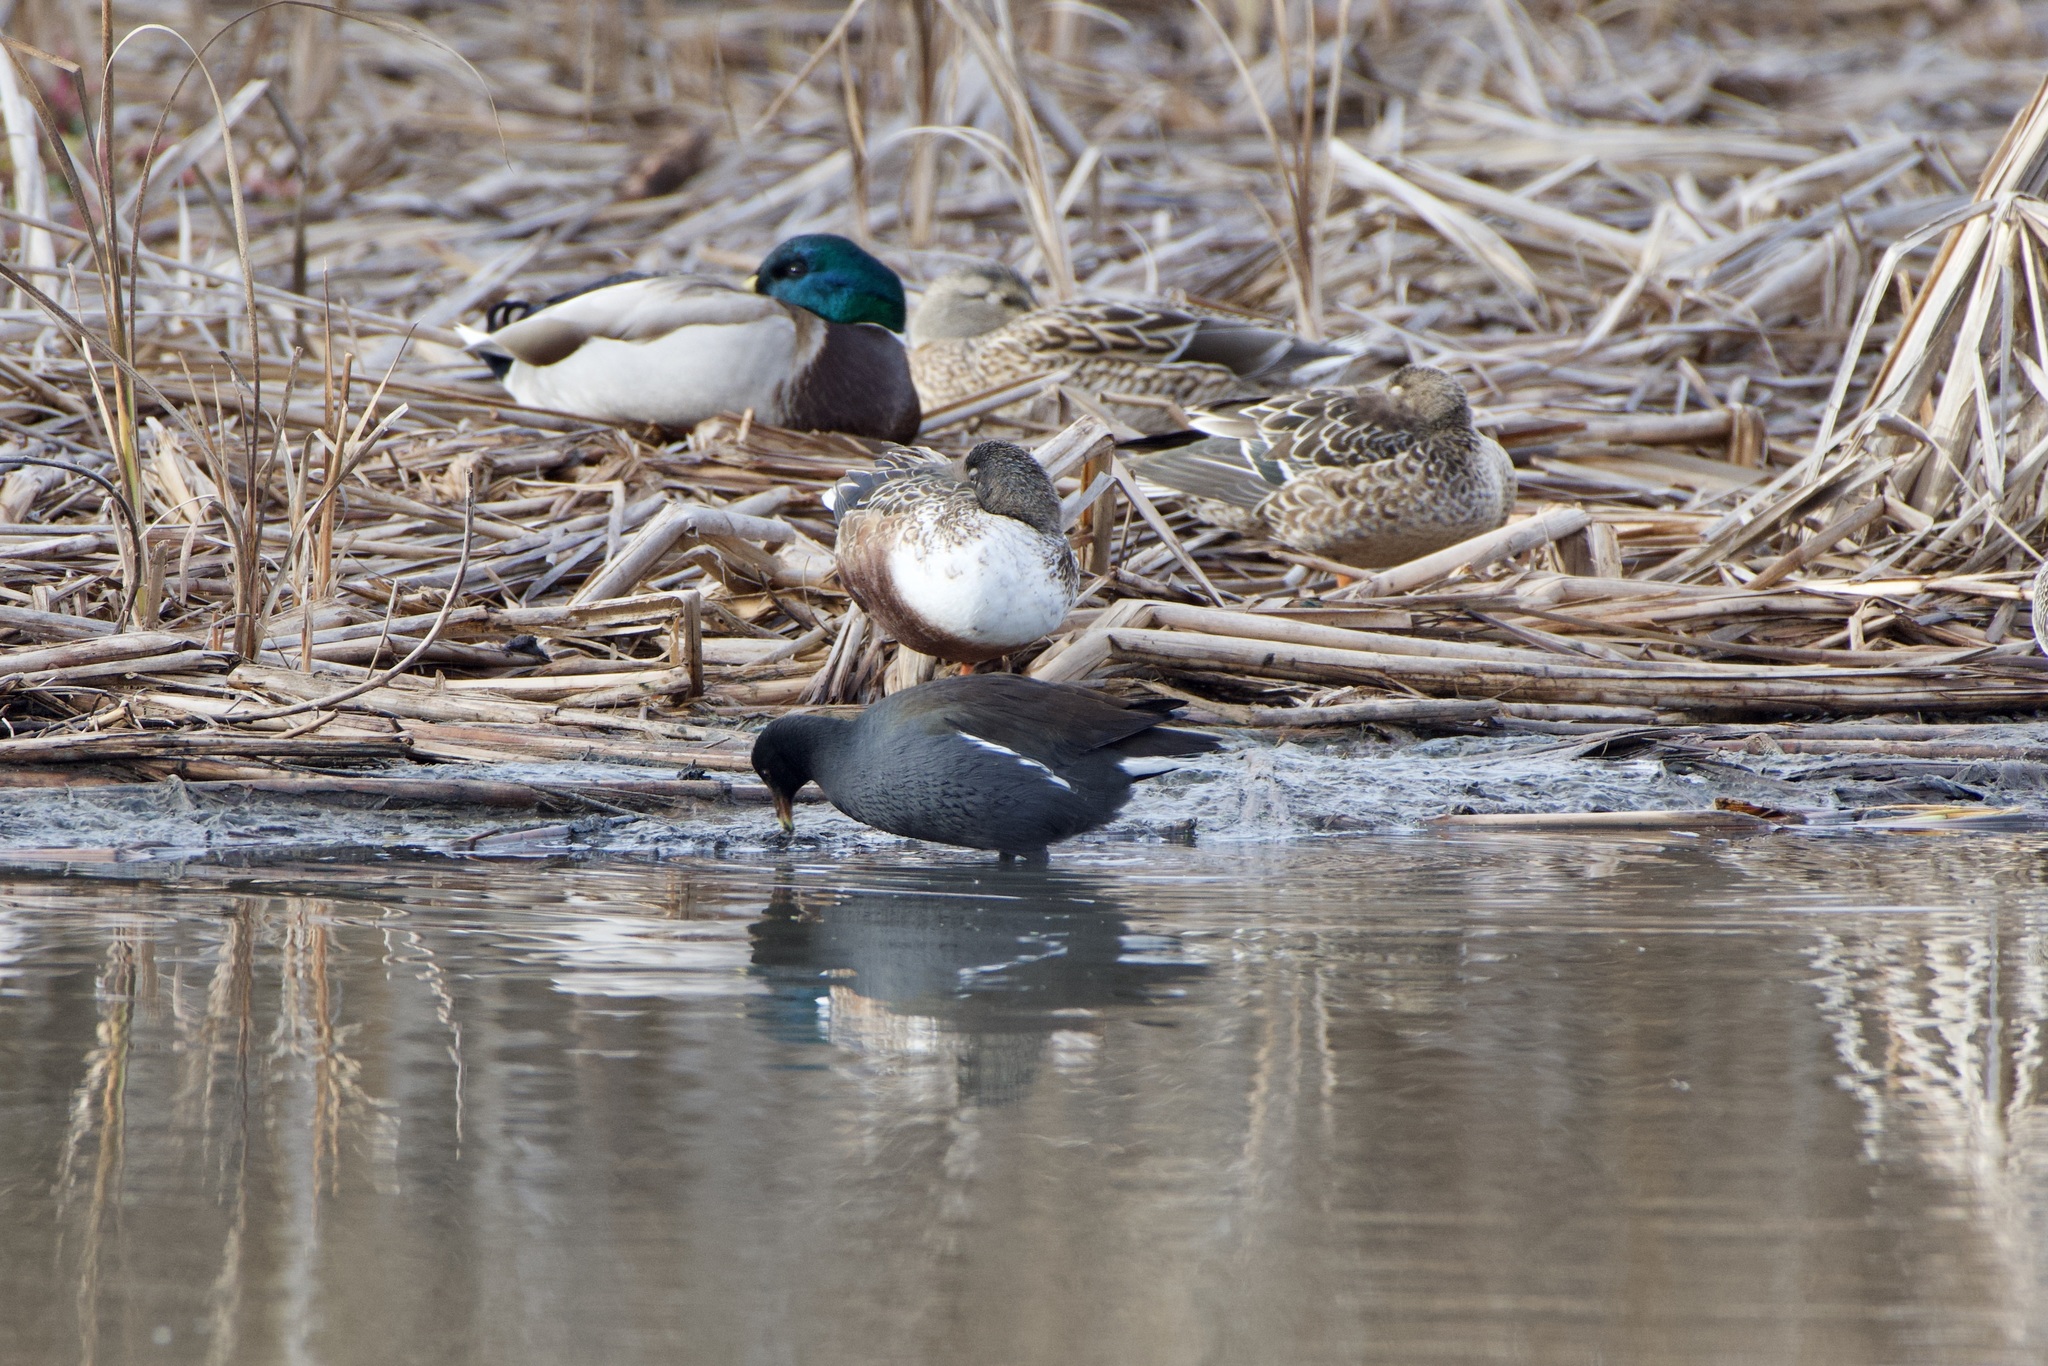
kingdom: Animalia
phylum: Chordata
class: Aves
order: Gruiformes
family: Rallidae
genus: Gallinula
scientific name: Gallinula chloropus
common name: Common moorhen
